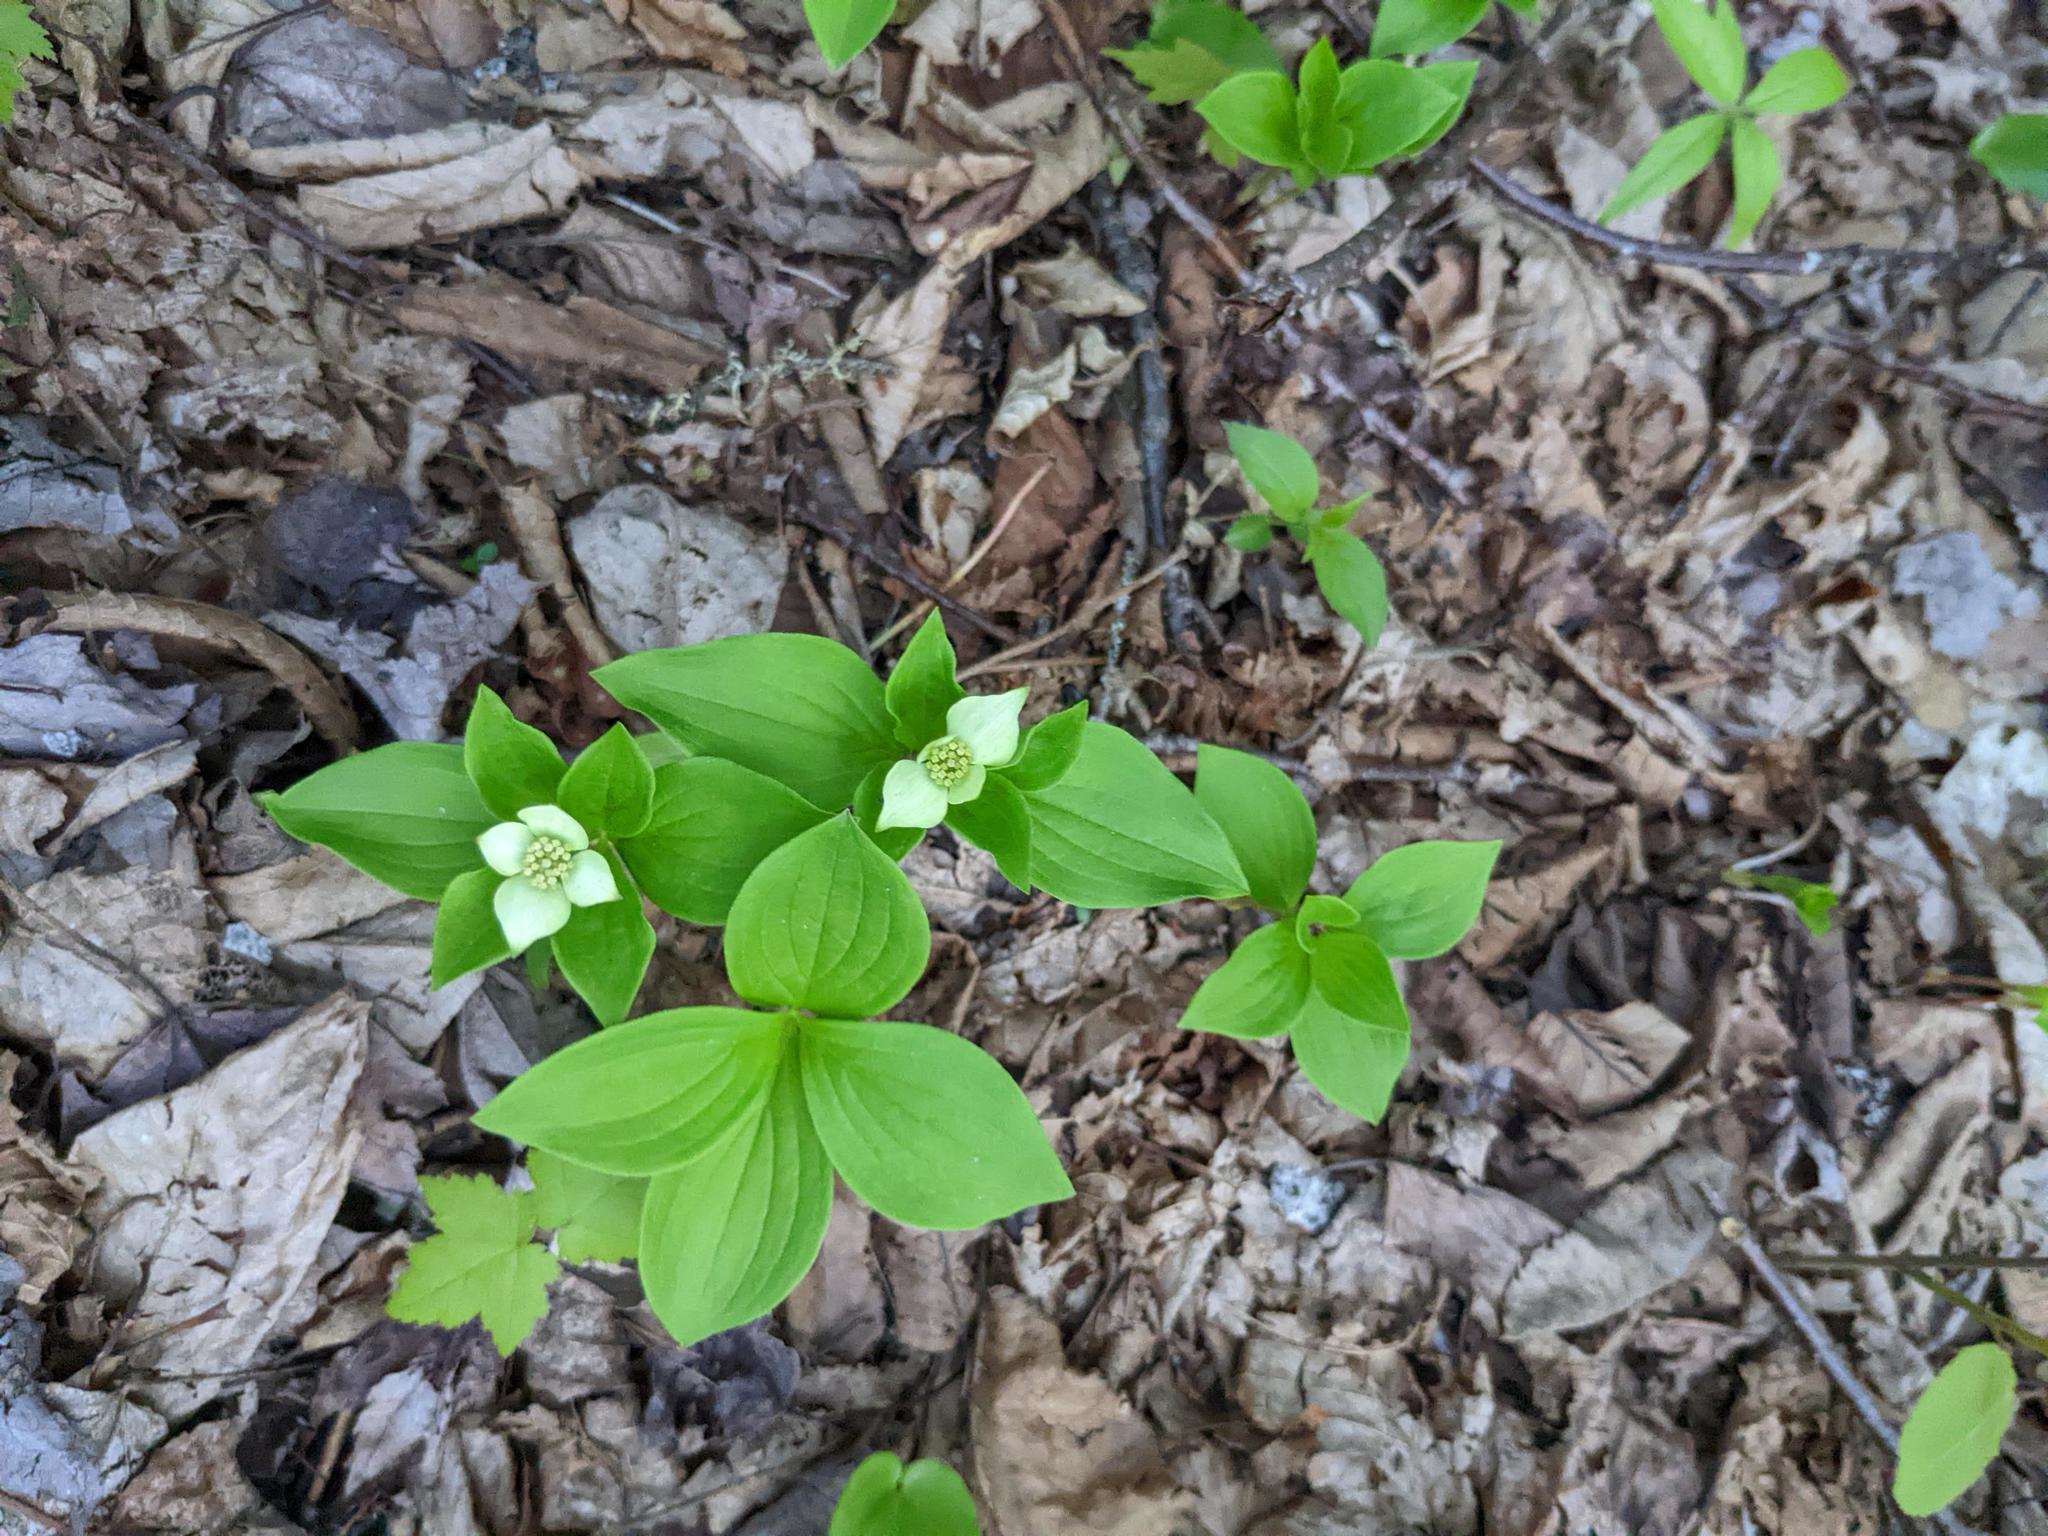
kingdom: Plantae
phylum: Tracheophyta
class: Magnoliopsida
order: Cornales
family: Cornaceae
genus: Cornus
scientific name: Cornus canadensis
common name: Creeping dogwood
